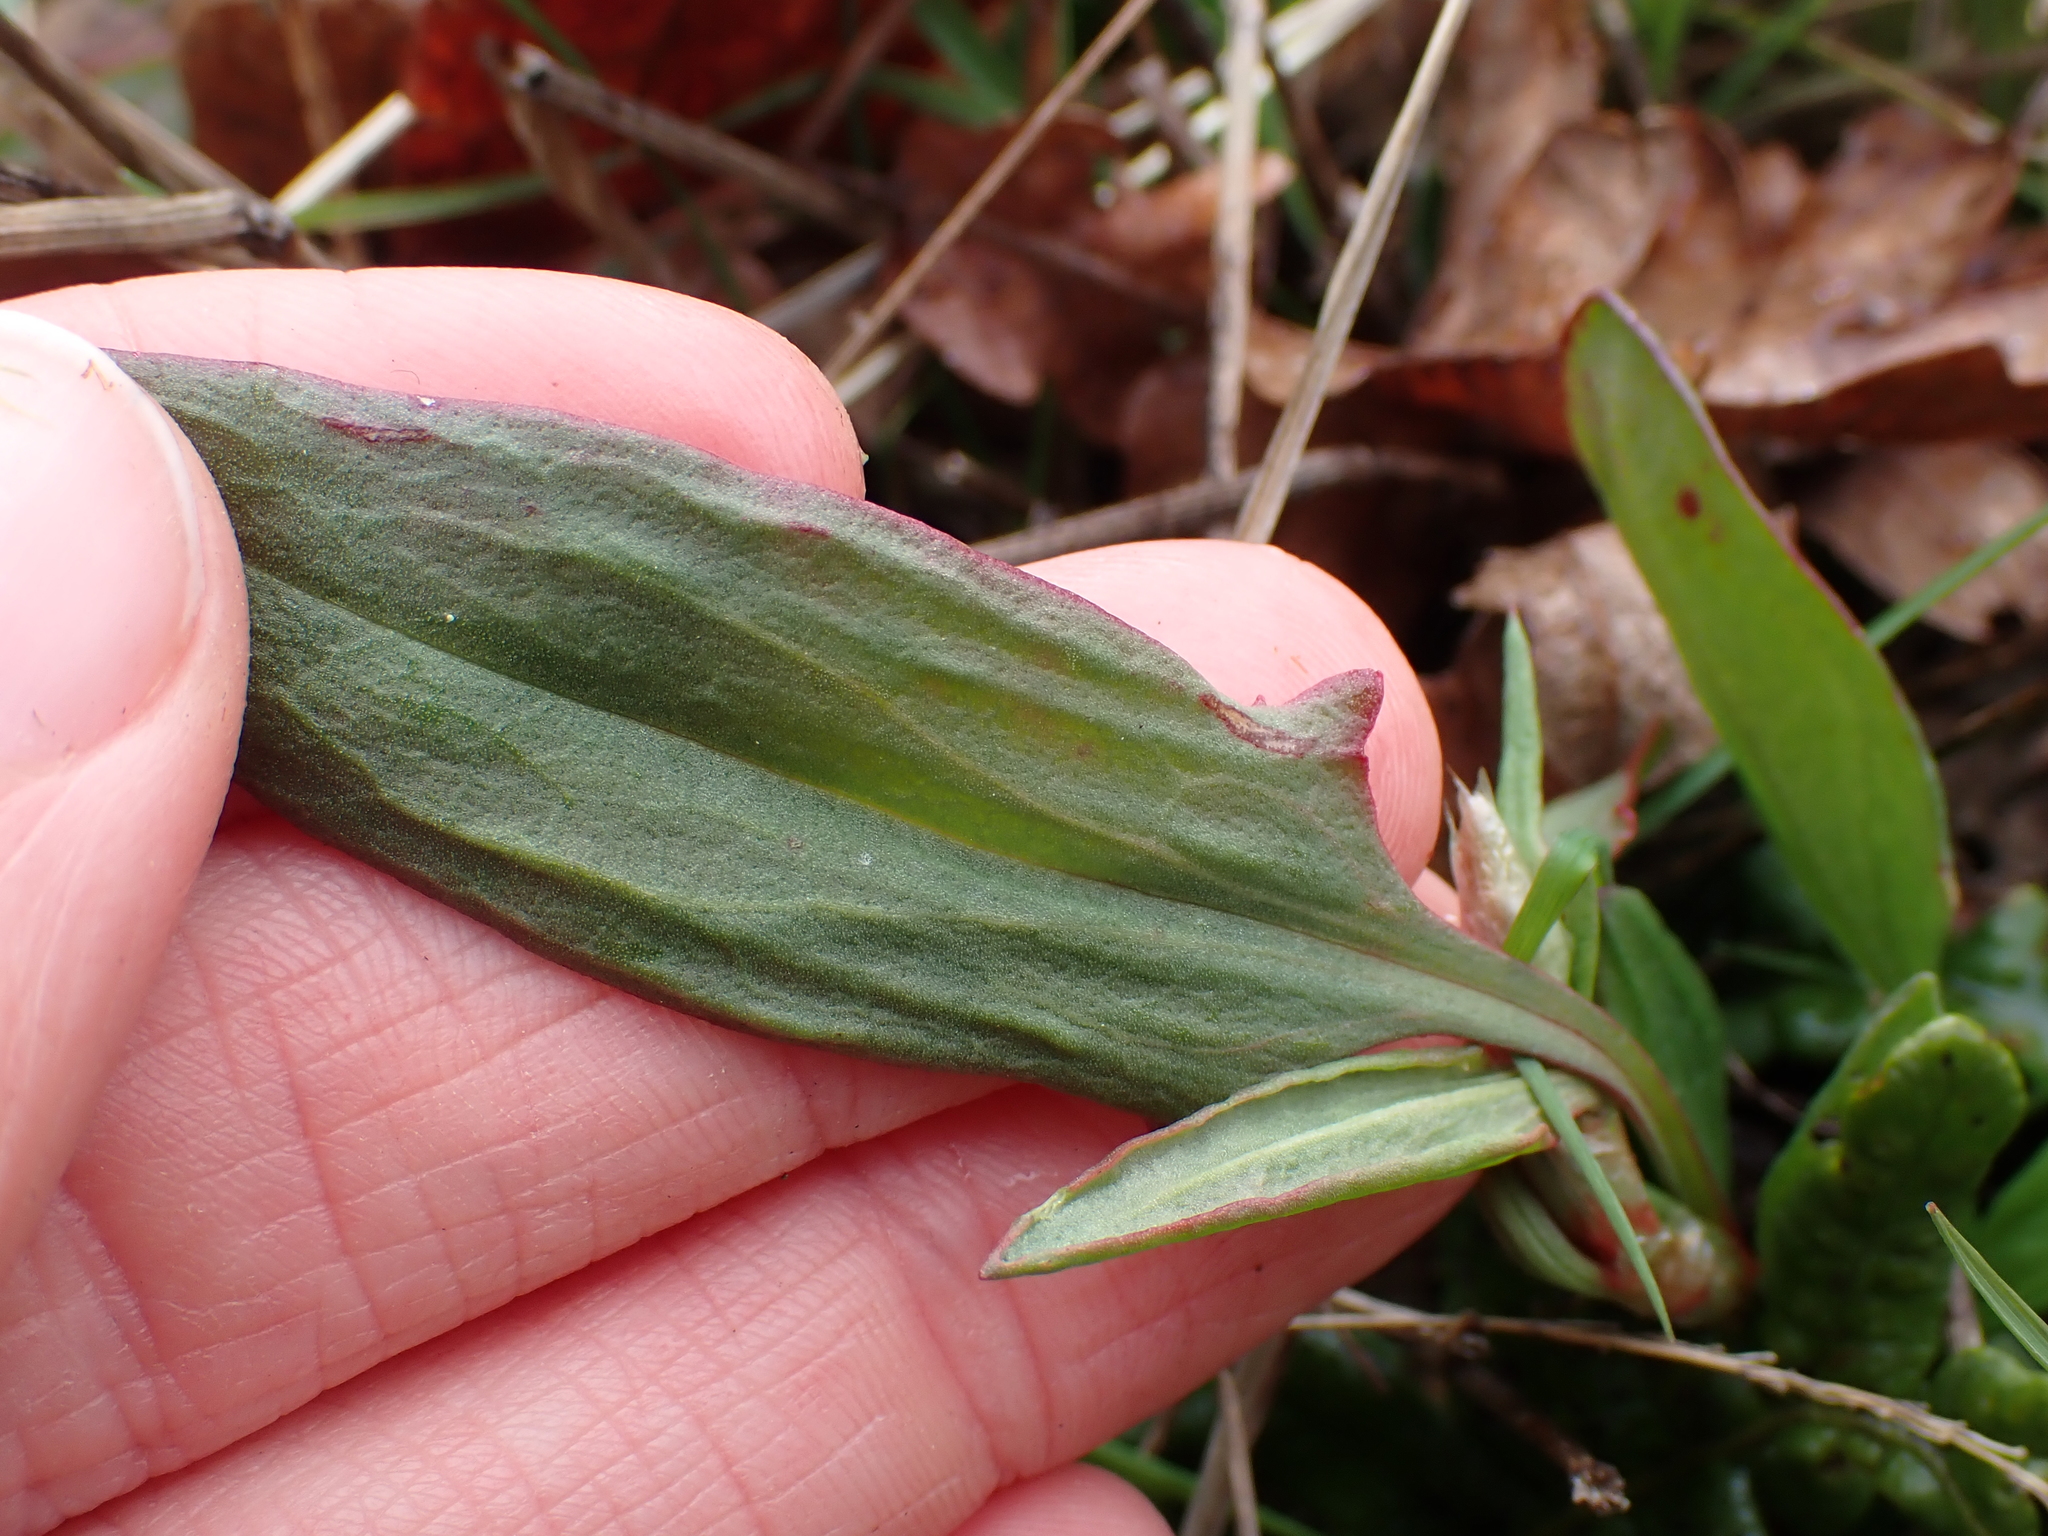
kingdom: Plantae
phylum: Tracheophyta
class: Magnoliopsida
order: Caryophyllales
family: Polygonaceae
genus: Rumex
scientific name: Rumex acetosella
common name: Common sheep sorrel
